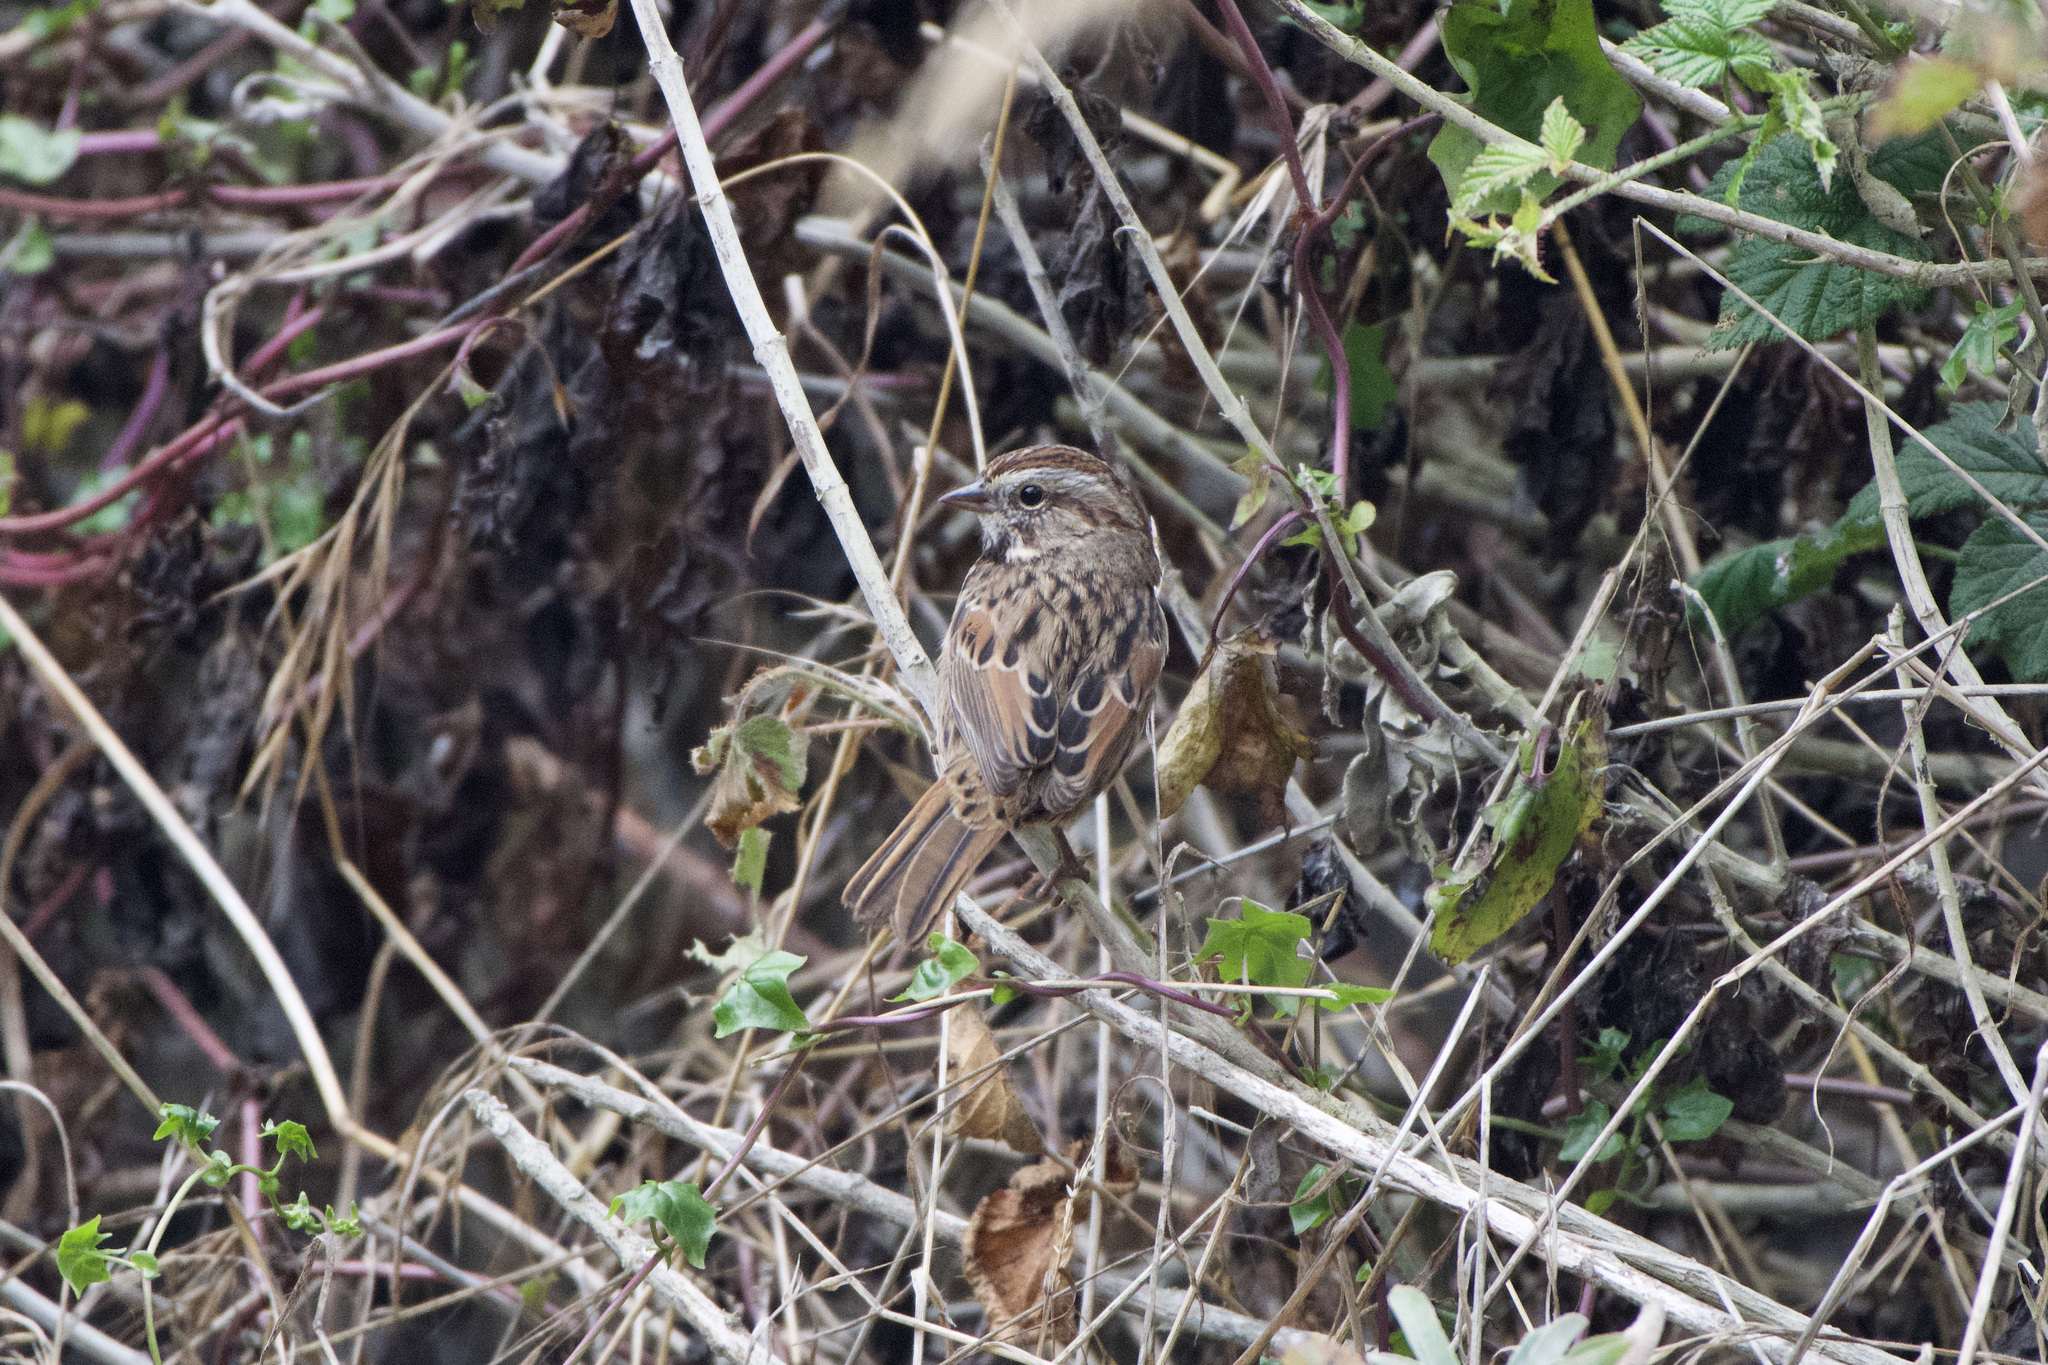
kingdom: Animalia
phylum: Chordata
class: Aves
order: Passeriformes
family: Passerellidae
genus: Melospiza
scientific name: Melospiza melodia
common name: Song sparrow
